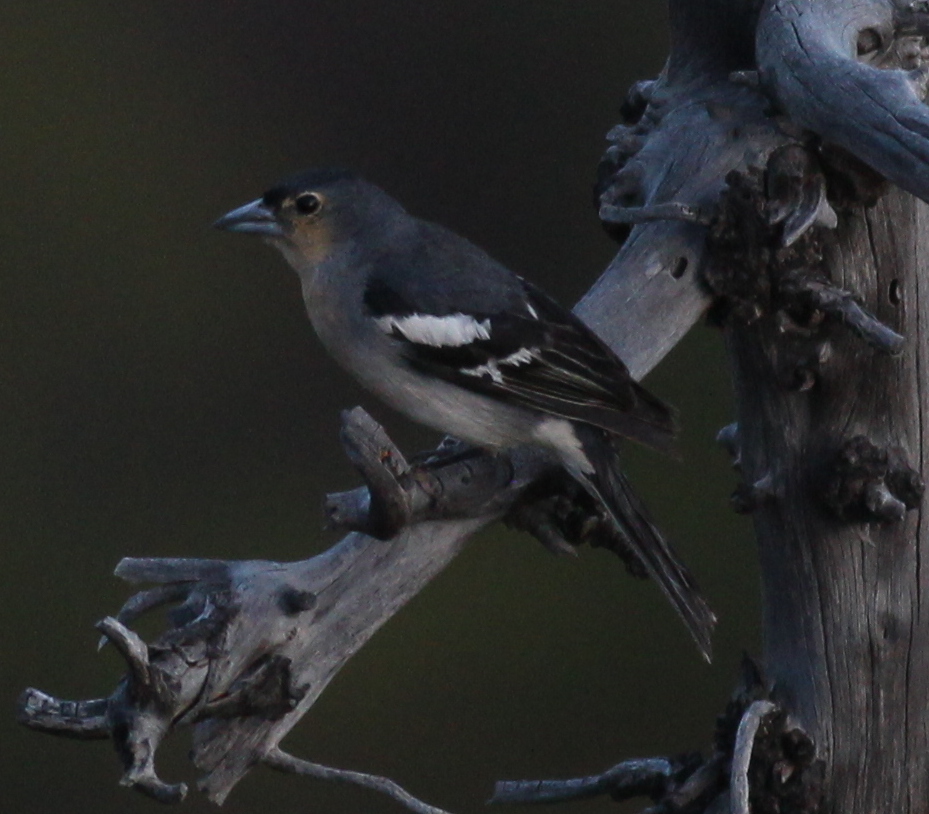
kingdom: Animalia
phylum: Chordata
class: Aves
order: Passeriformes
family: Fringillidae
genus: Fringilla
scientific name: Fringilla canariensis
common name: Canary islands chaffinch
